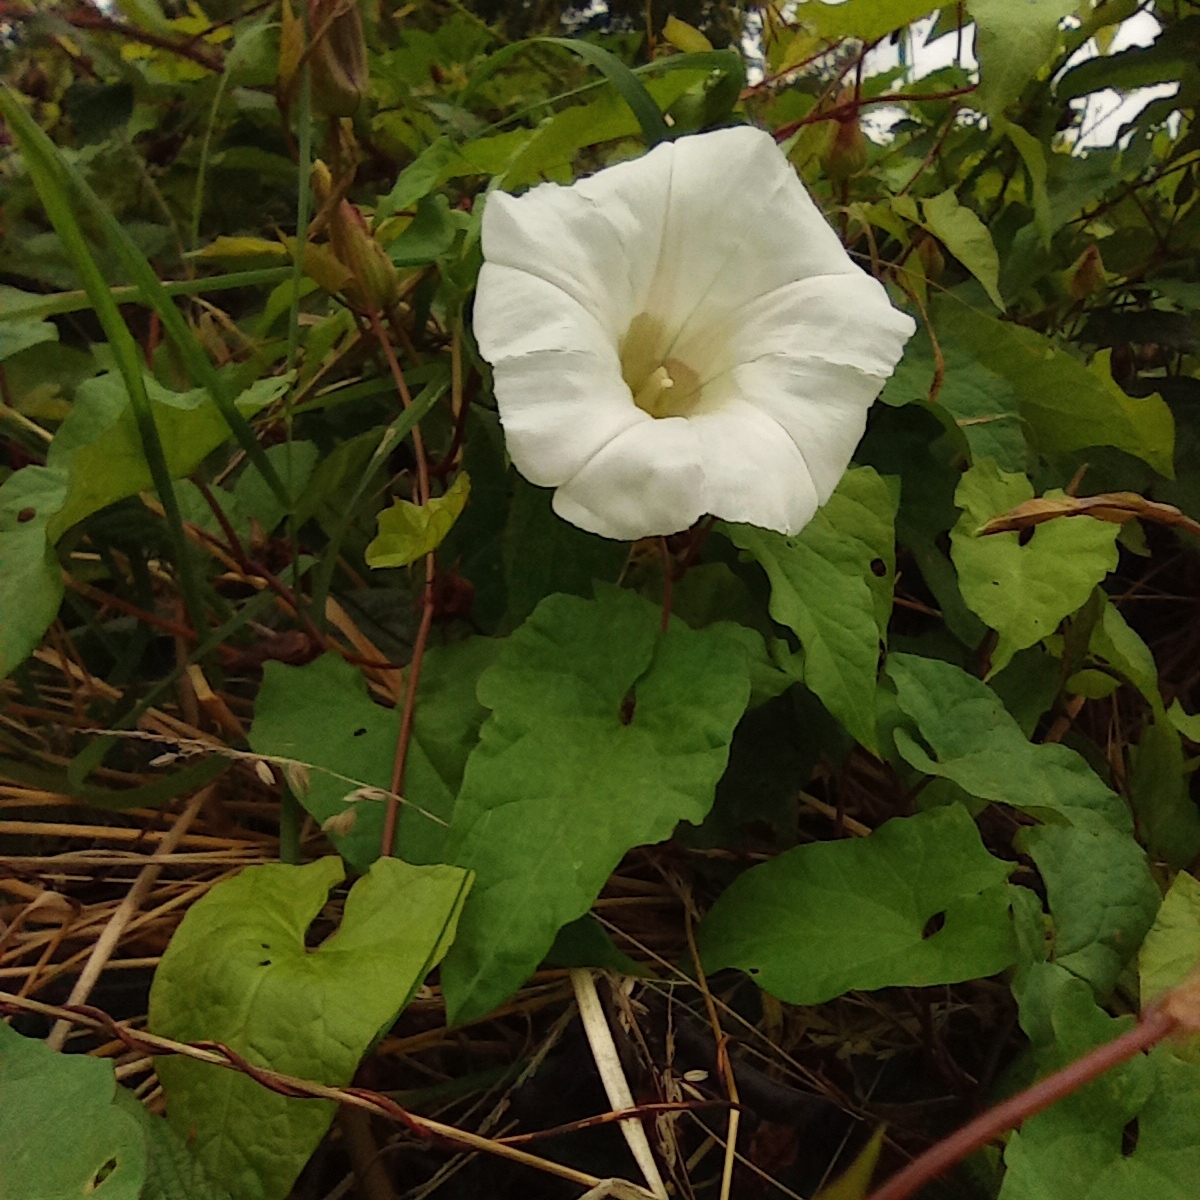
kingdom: Plantae
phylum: Tracheophyta
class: Magnoliopsida
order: Solanales
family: Convolvulaceae
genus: Calystegia
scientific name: Calystegia silvatica
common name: Large bindweed
